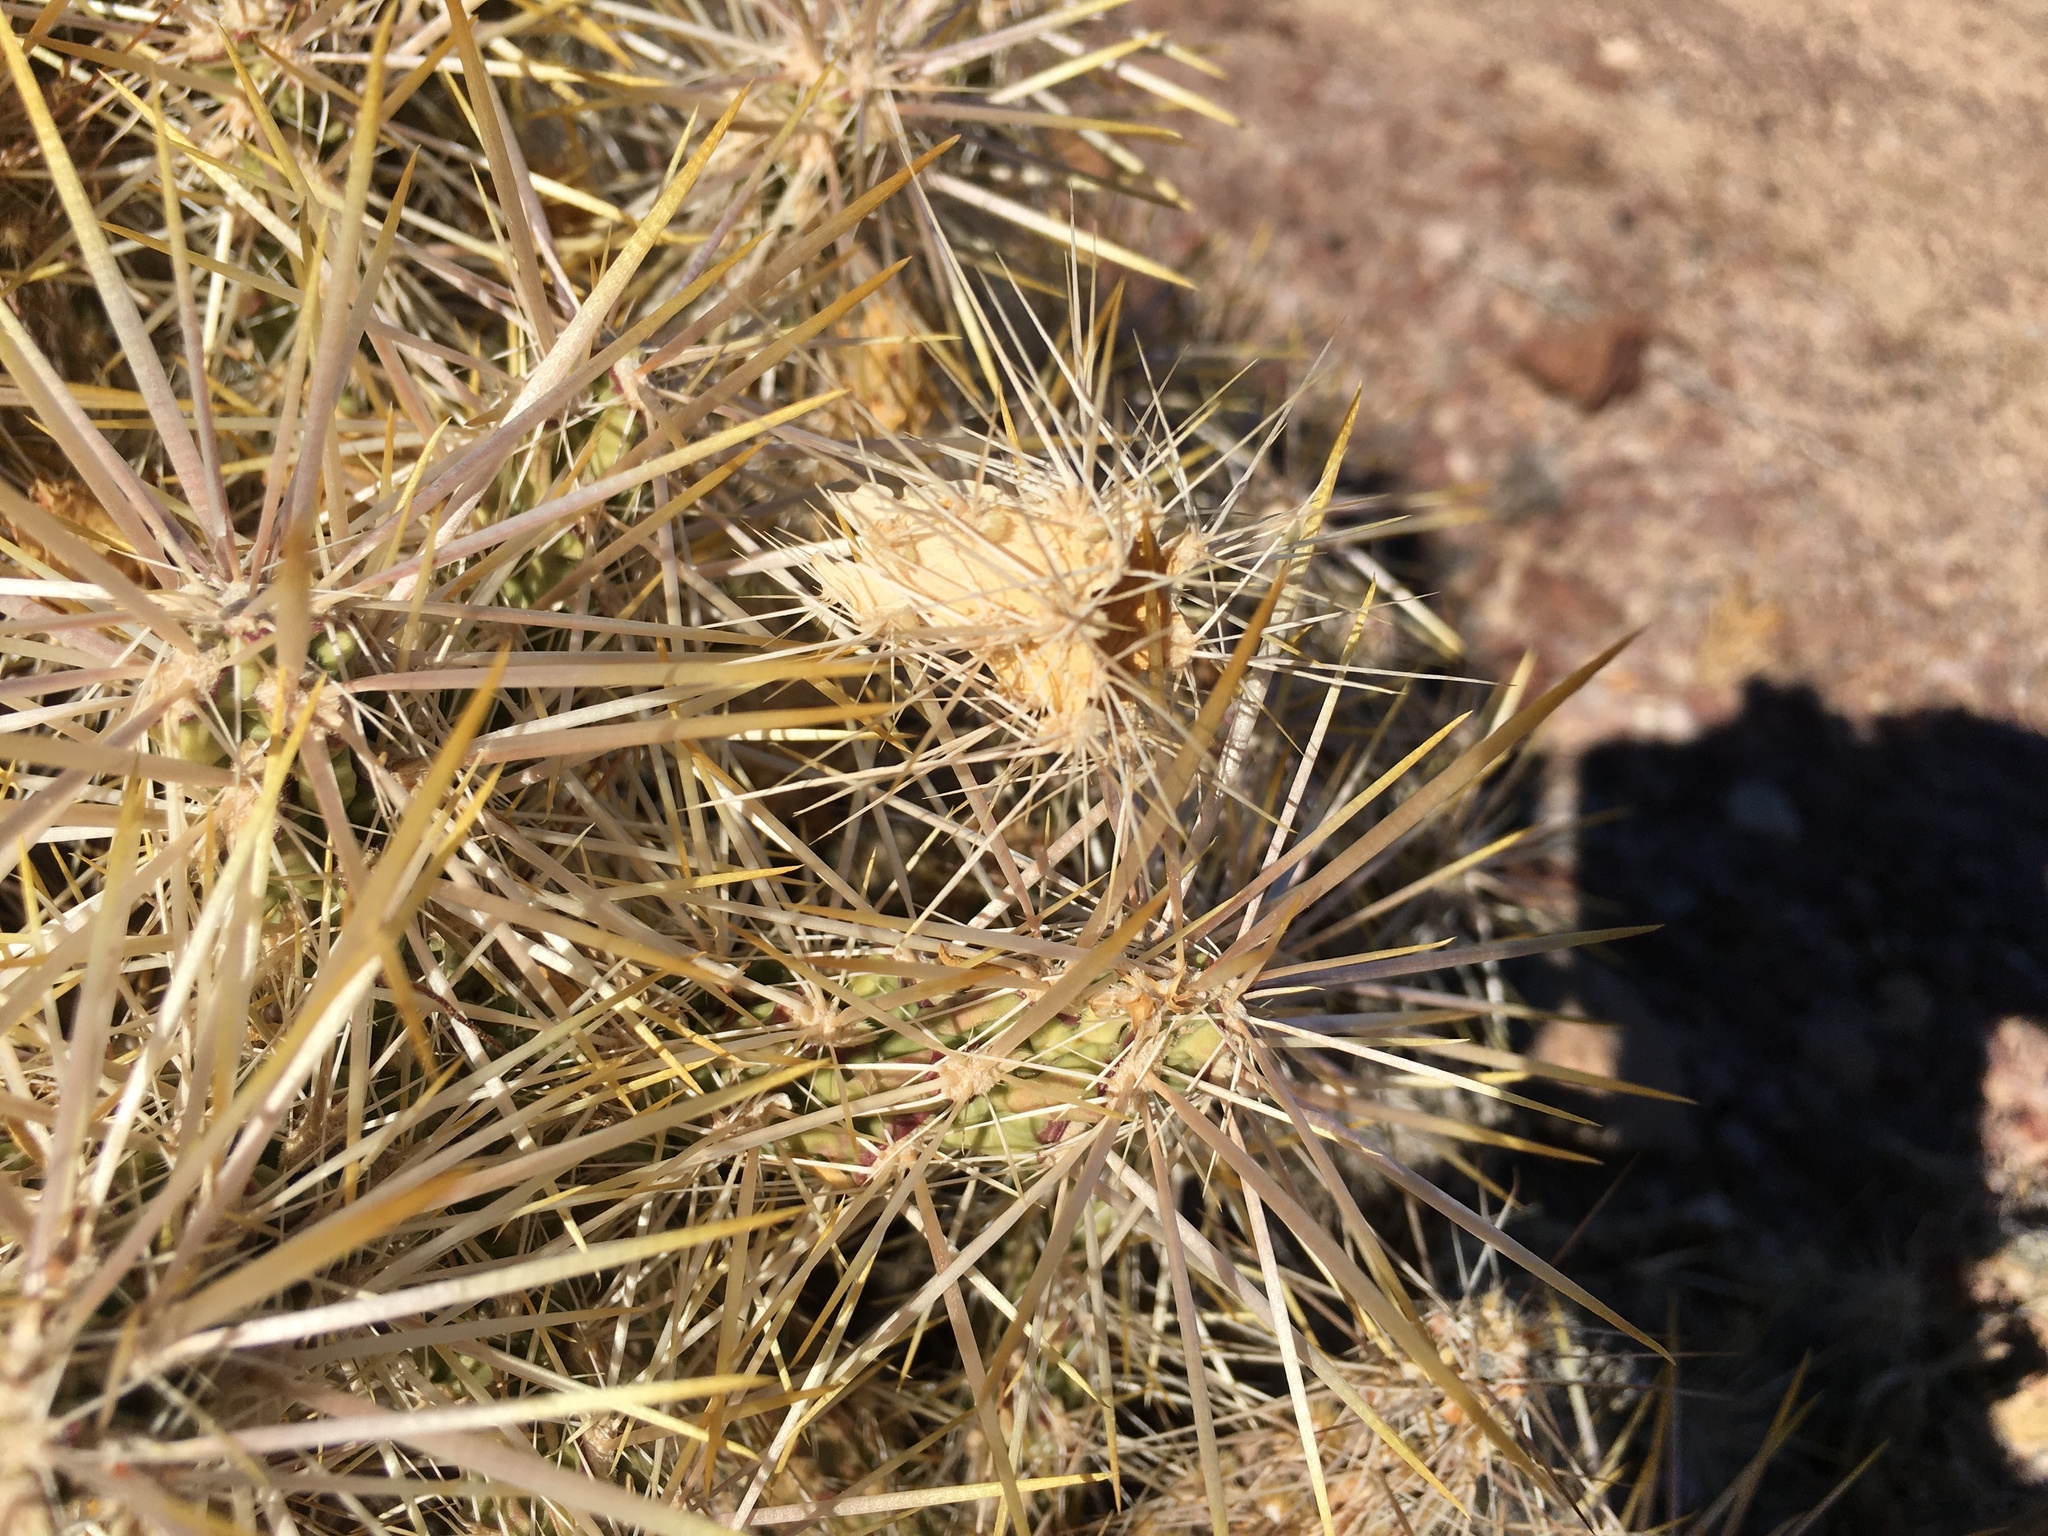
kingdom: Plantae
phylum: Tracheophyta
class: Magnoliopsida
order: Caryophyllales
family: Cactaceae
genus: Cylindropuntia
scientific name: Cylindropuntia echinocarpa
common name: Ground cholla
